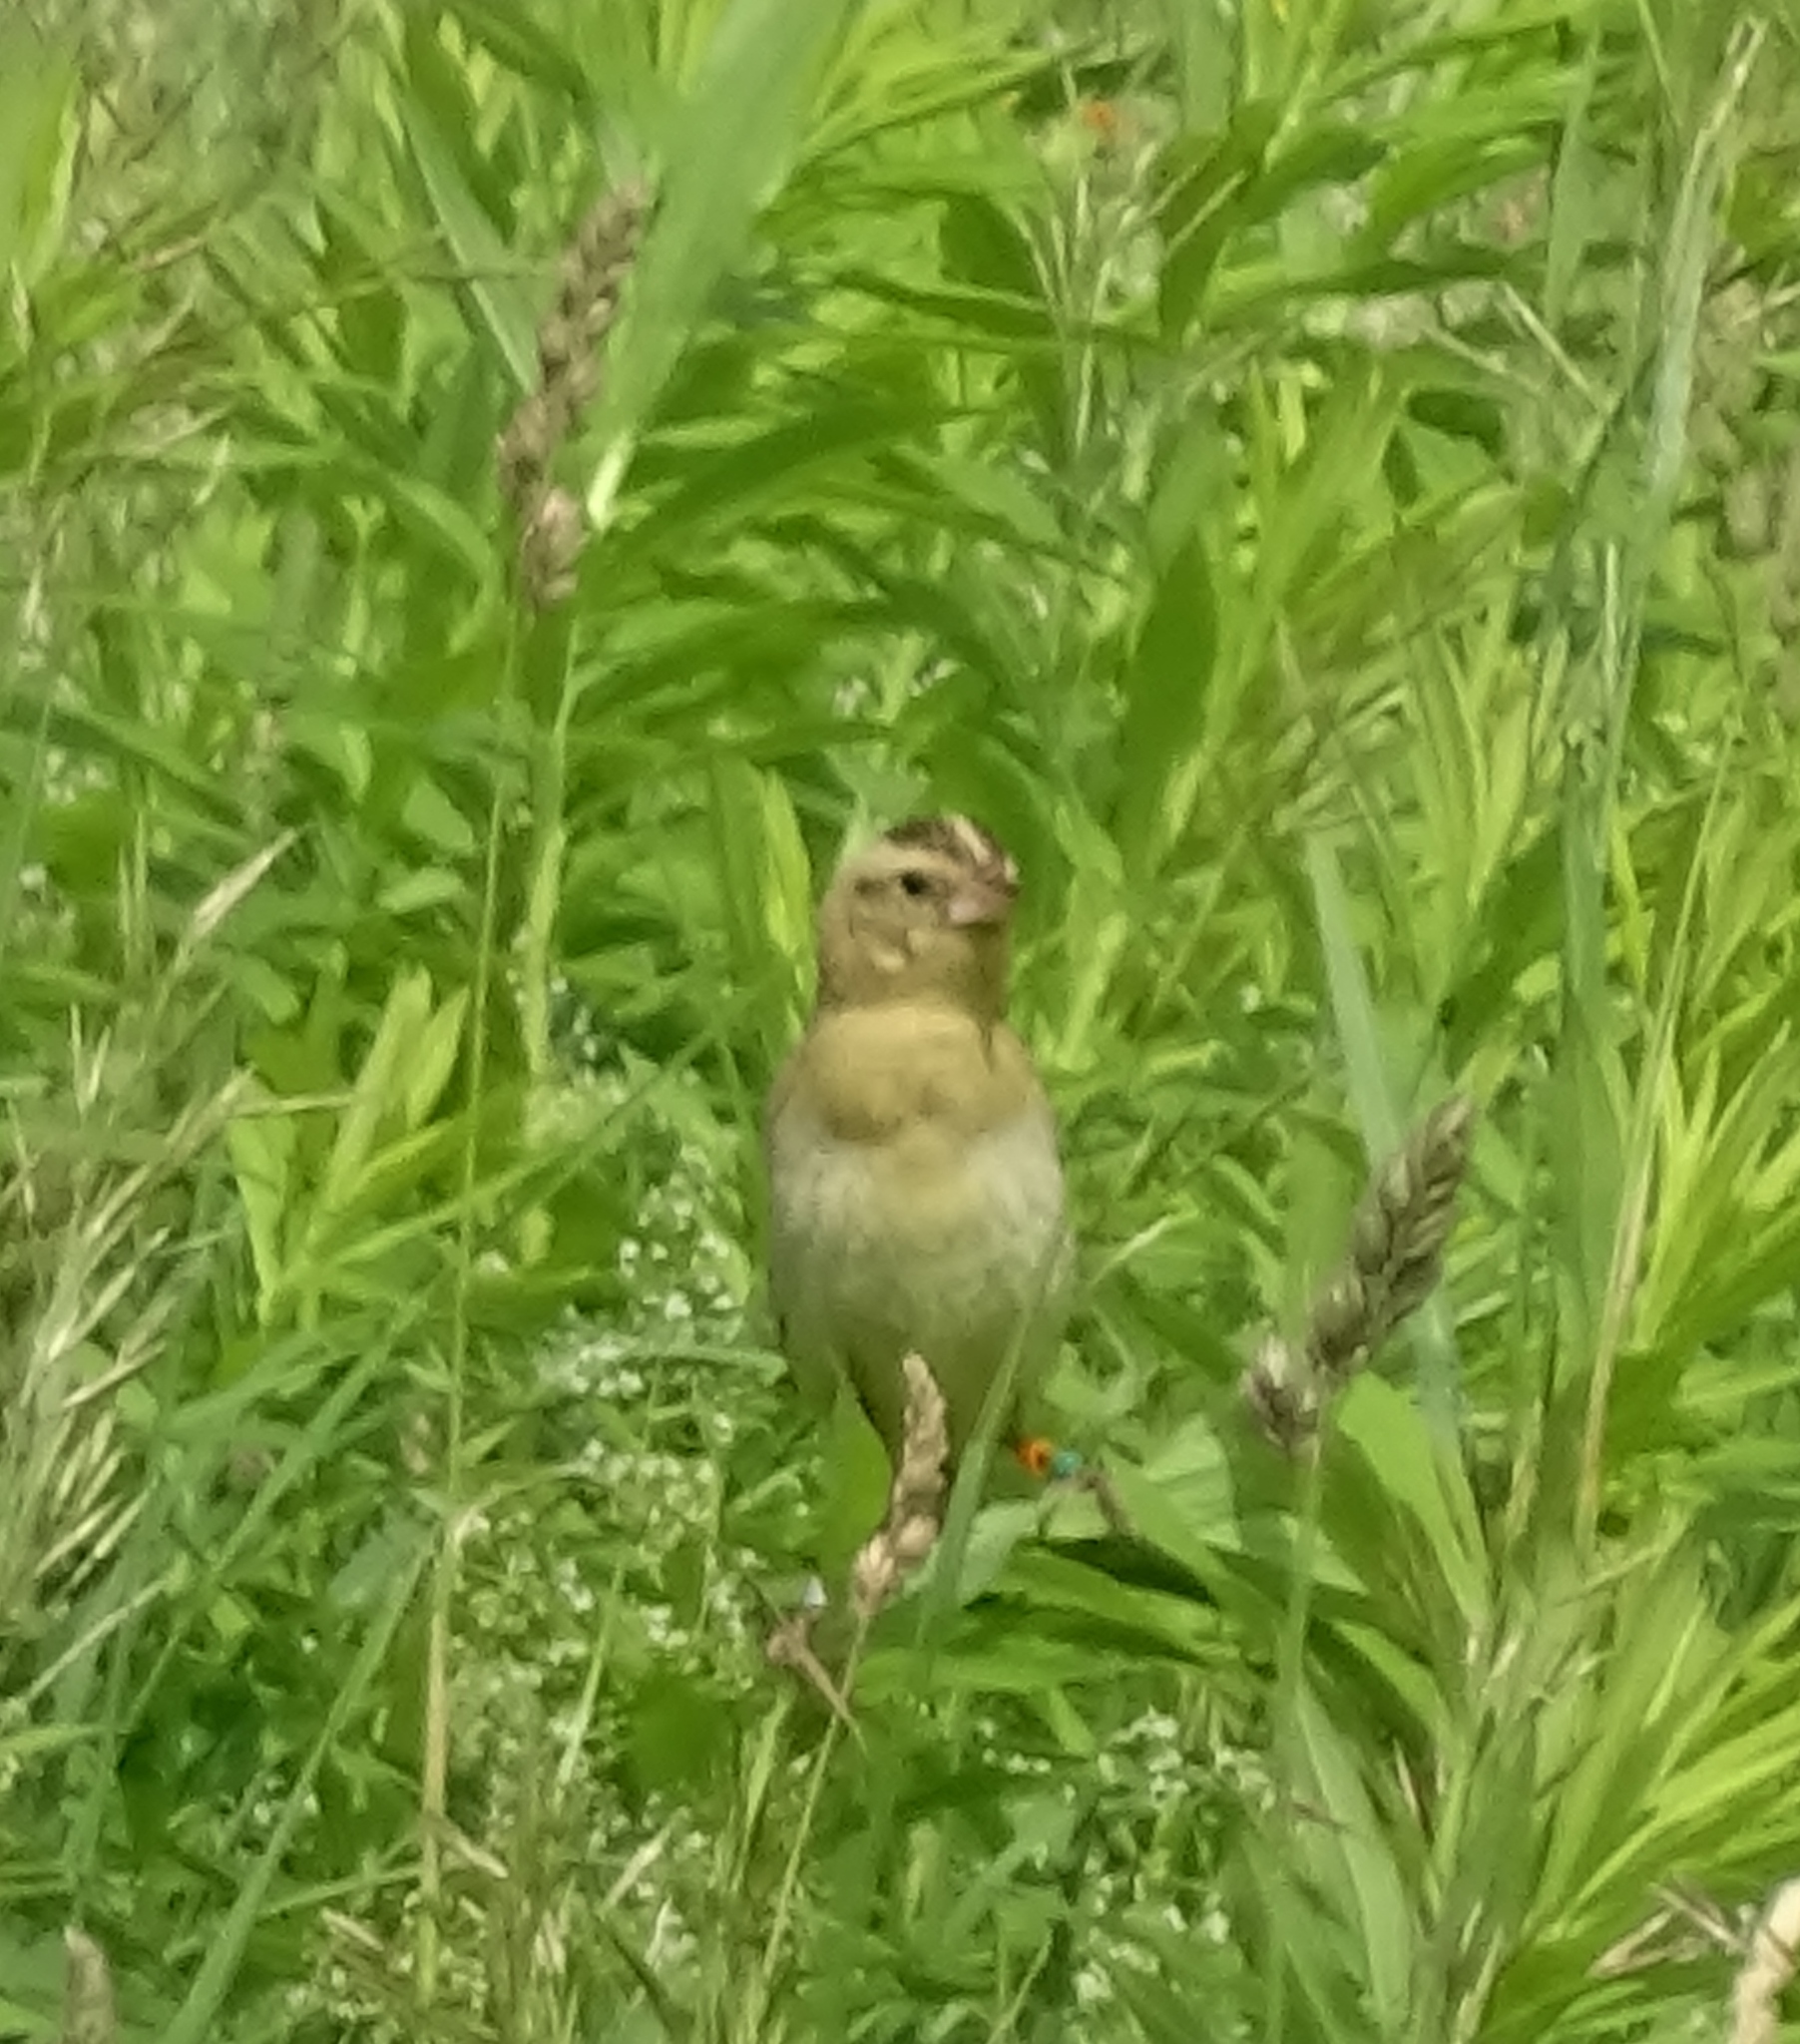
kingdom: Animalia
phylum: Chordata
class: Aves
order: Passeriformes
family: Icteridae
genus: Dolichonyx
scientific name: Dolichonyx oryzivorus
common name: Bobolink
